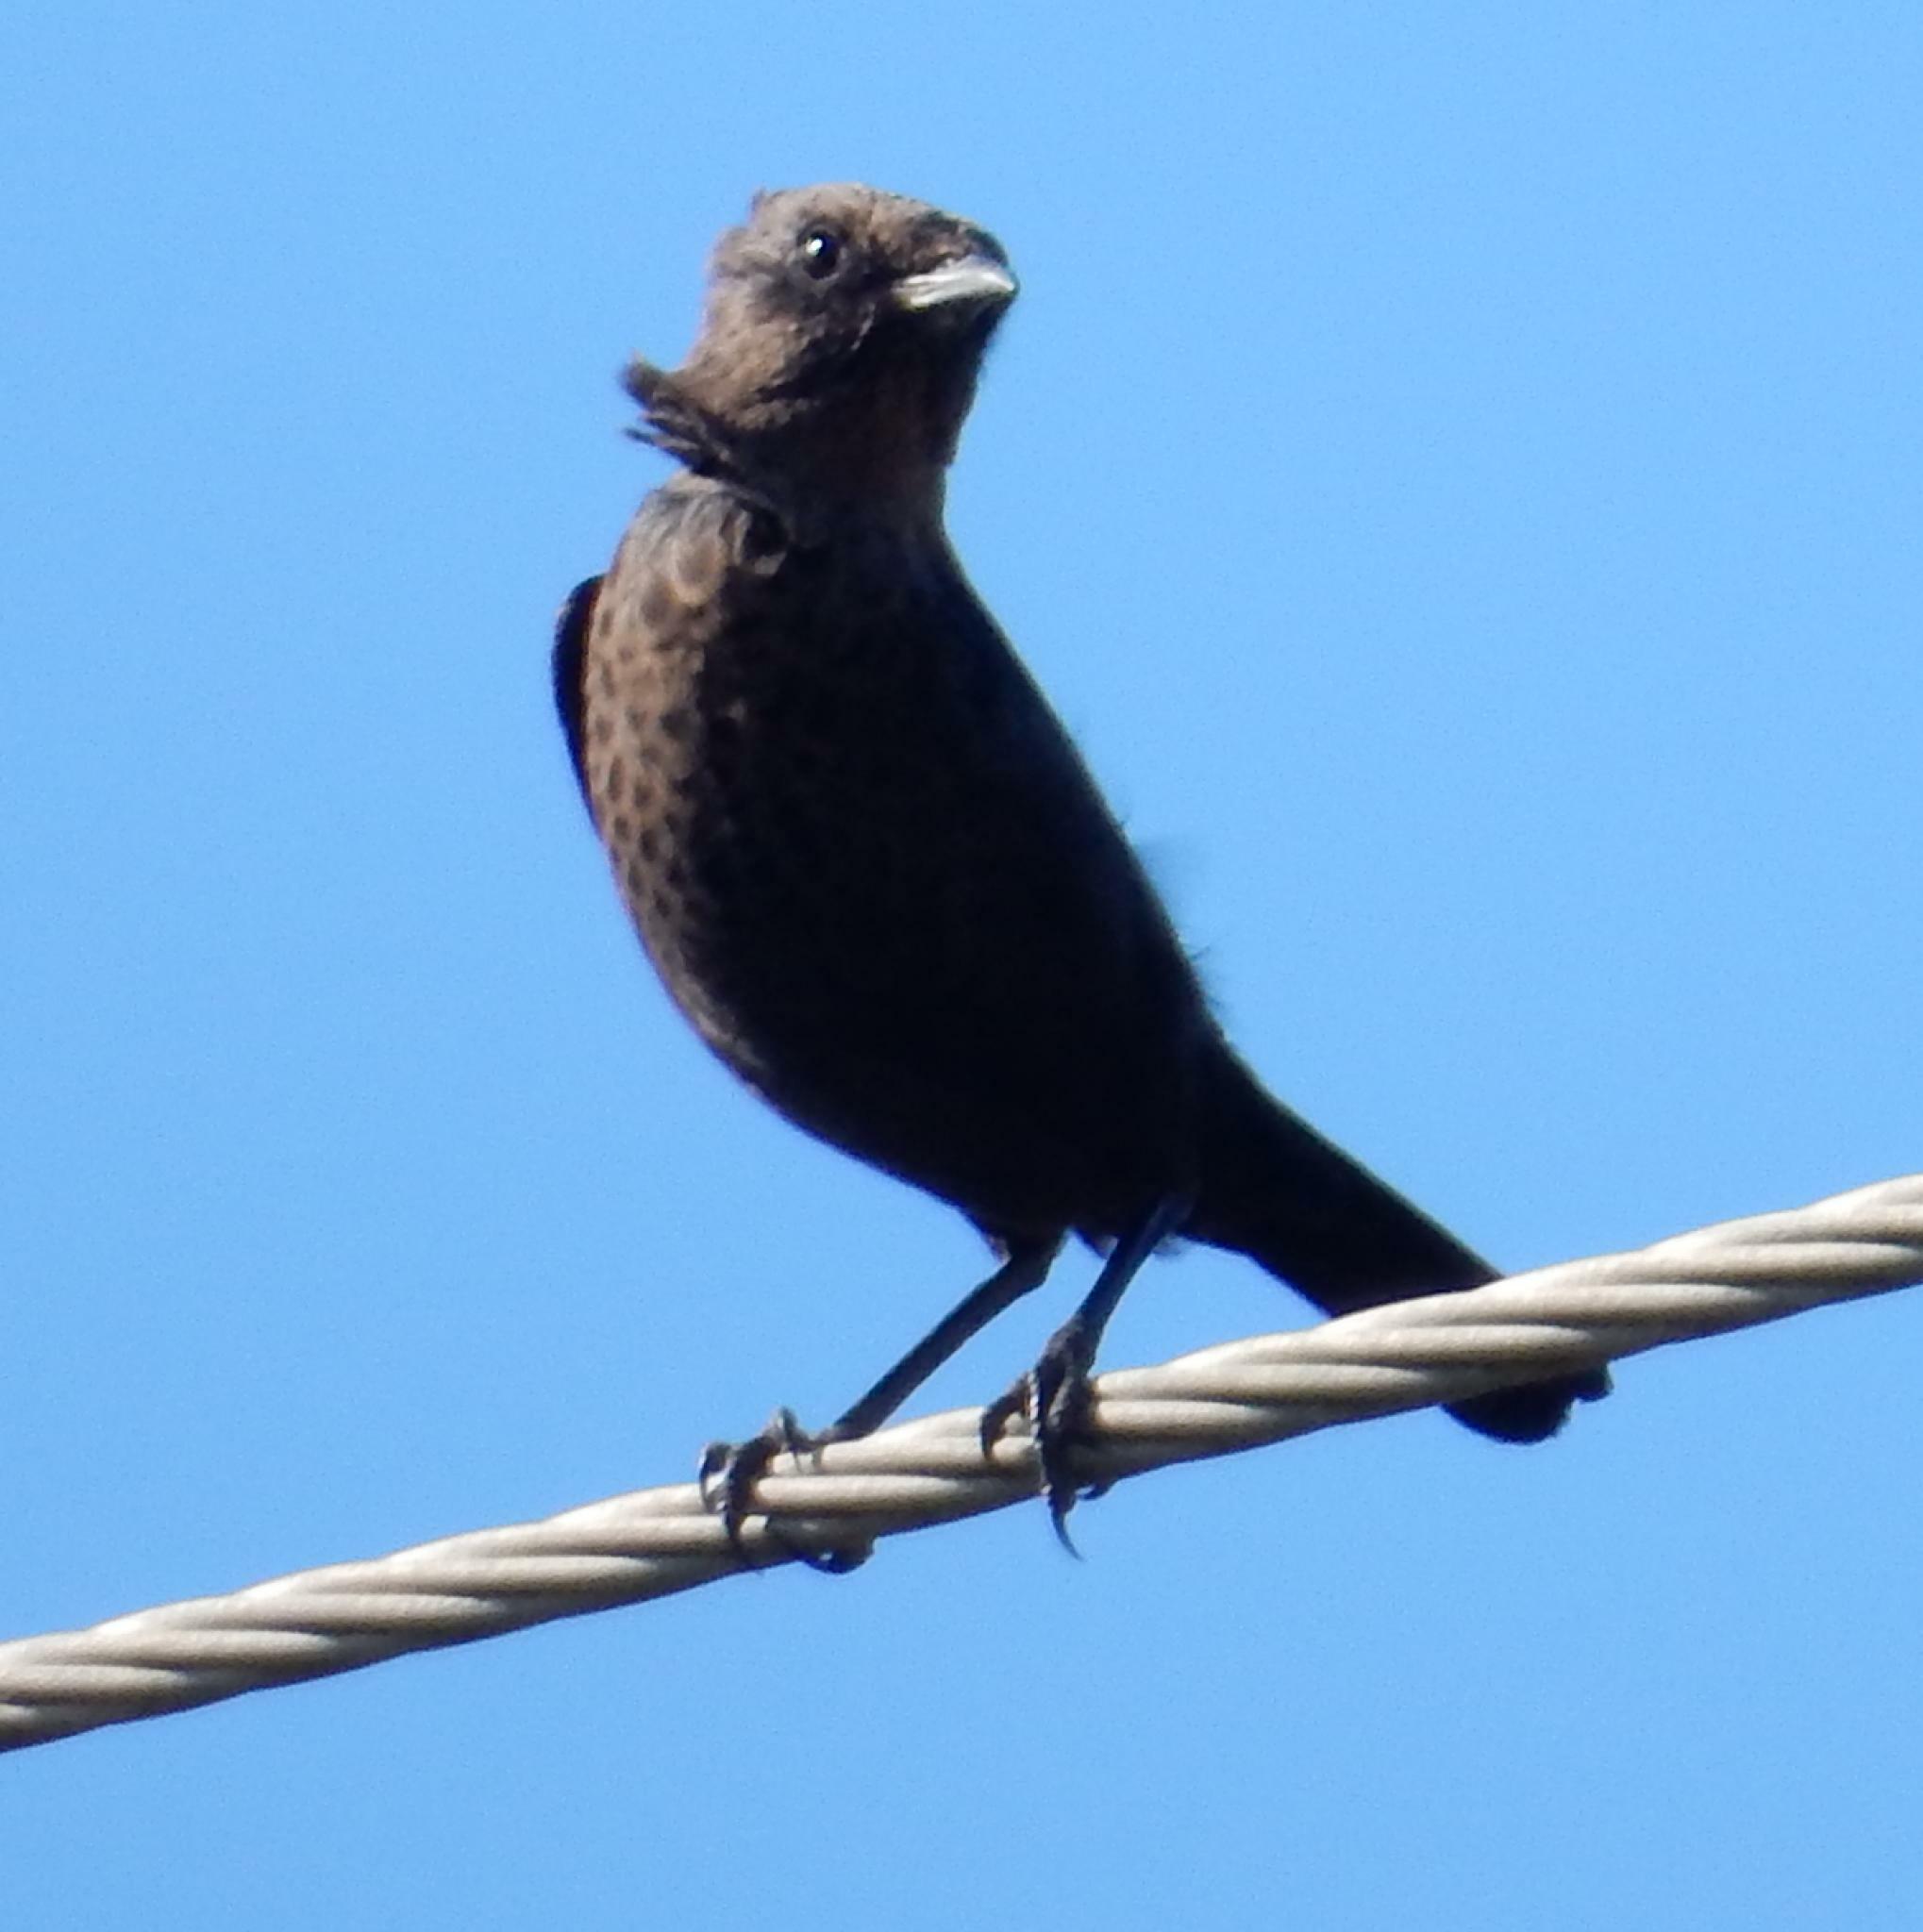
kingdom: Animalia
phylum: Chordata
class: Aves
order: Passeriformes
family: Muscicapidae
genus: Myrmecocichla
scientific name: Myrmecocichla formicivora
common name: Ant-eating chat
